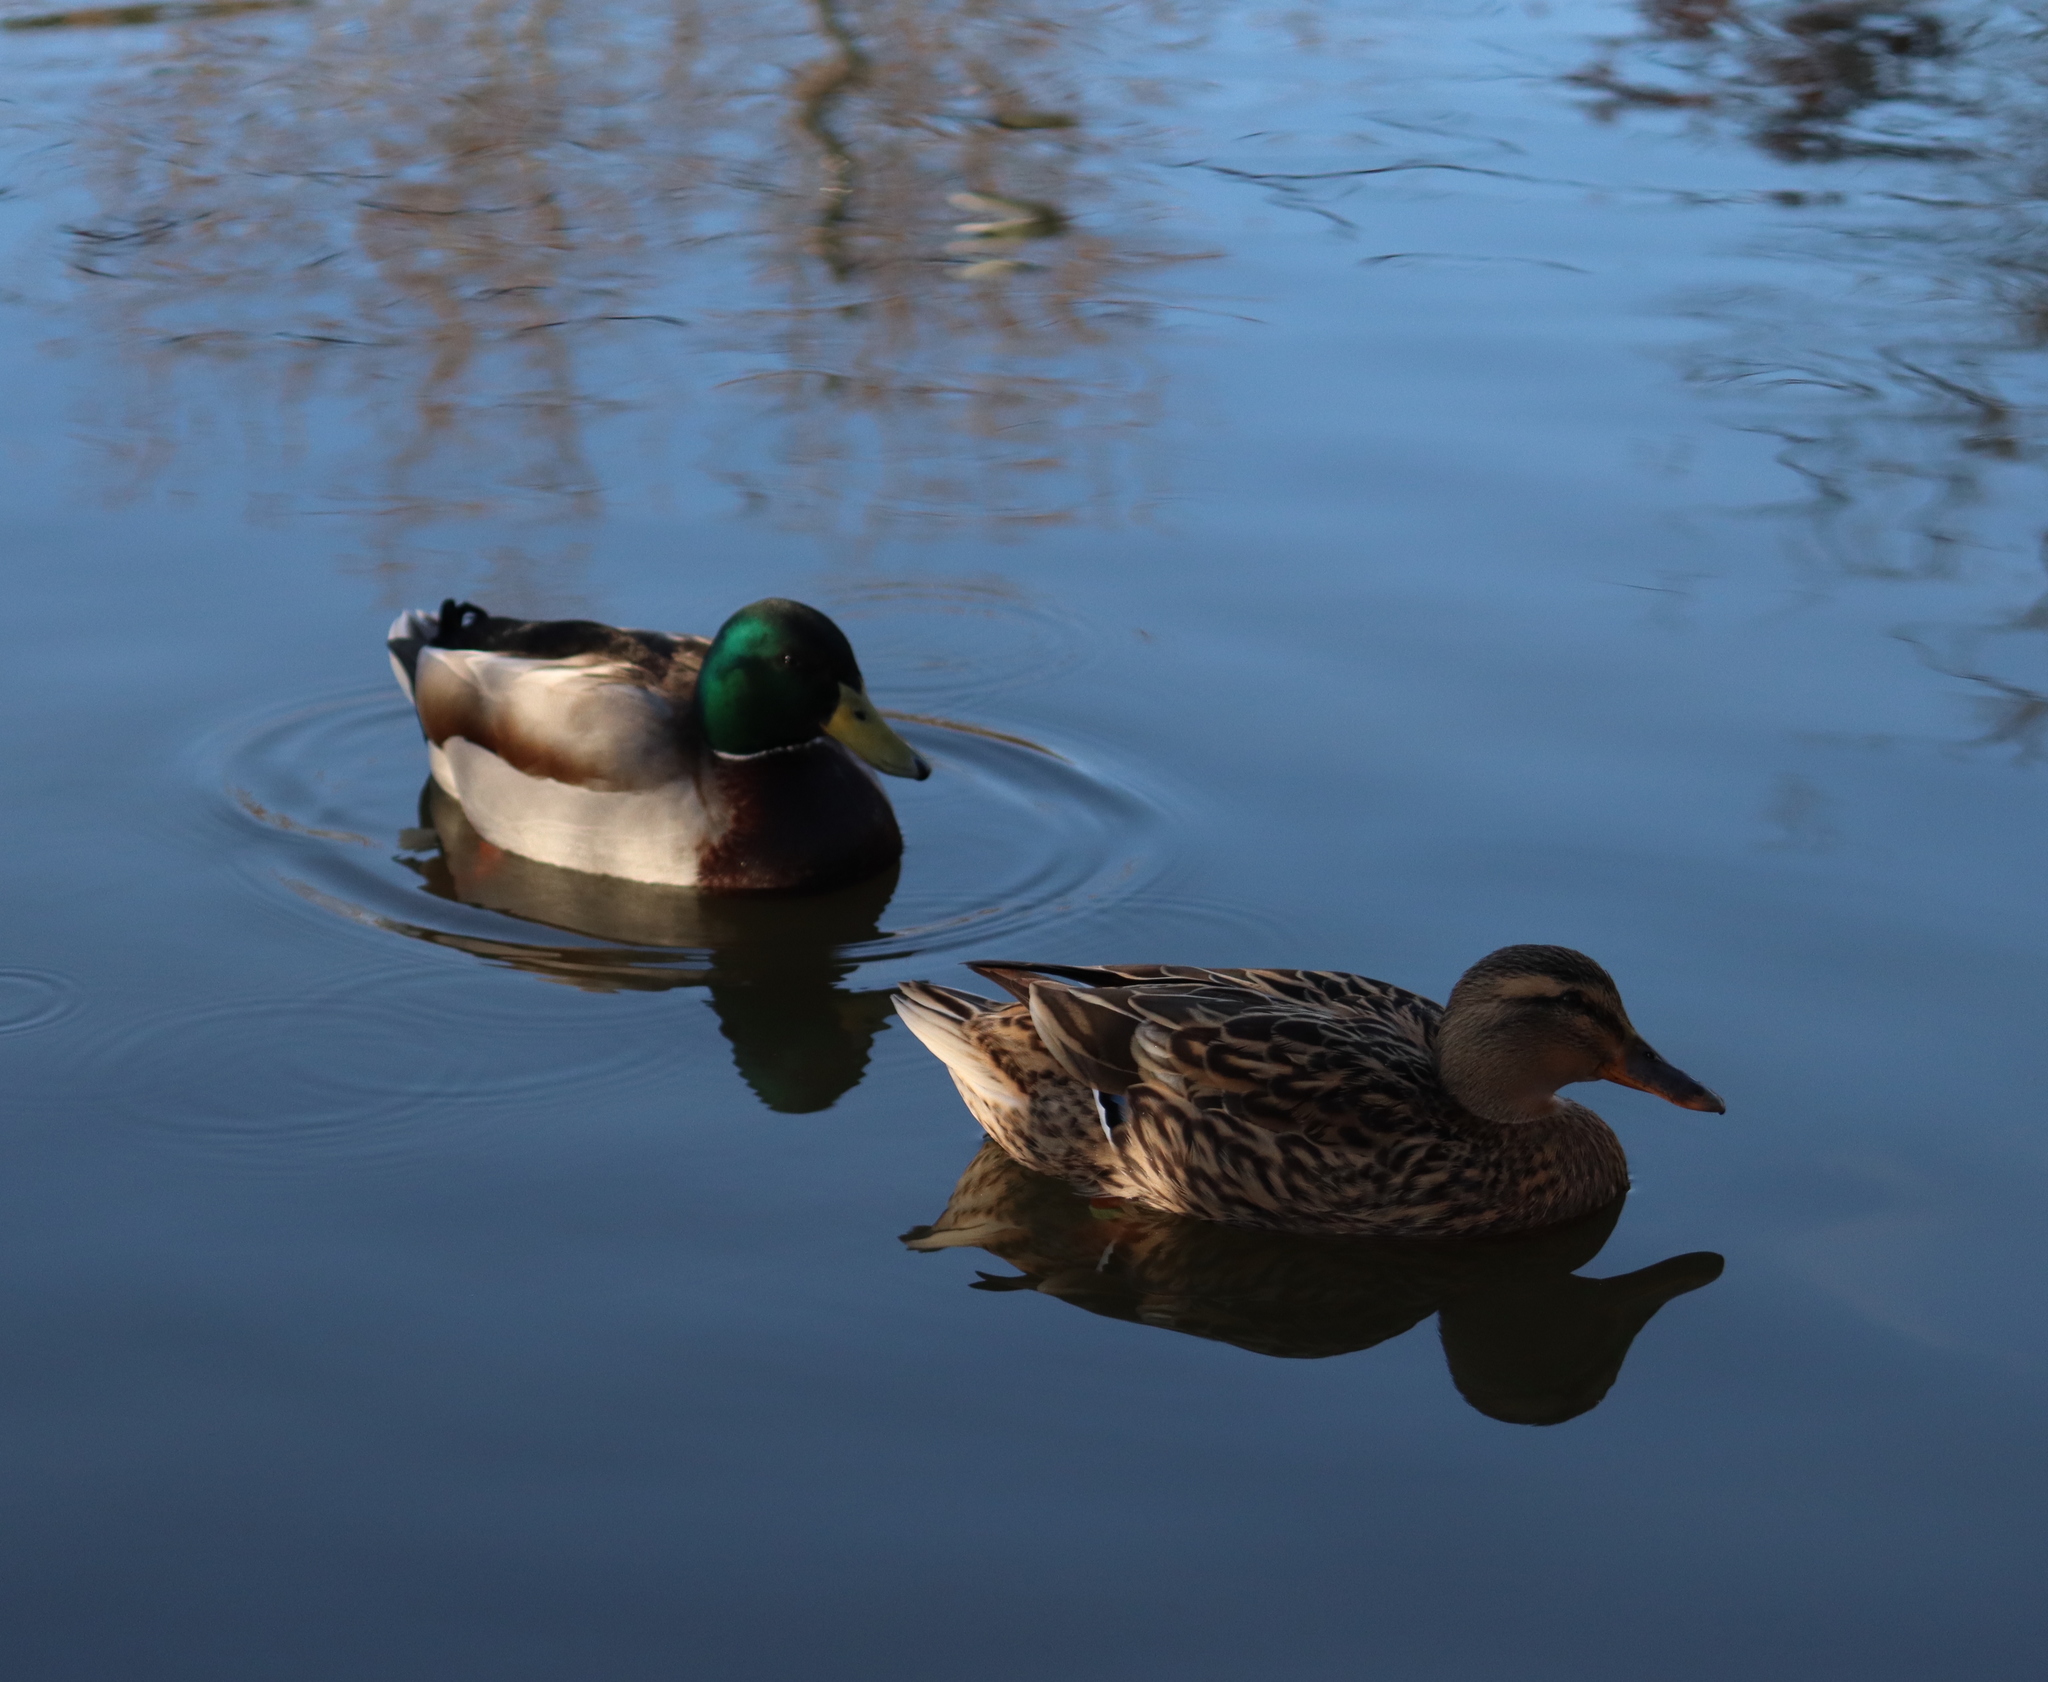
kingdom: Animalia
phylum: Chordata
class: Aves
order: Anseriformes
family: Anatidae
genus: Anas
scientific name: Anas platyrhynchos
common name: Mallard
